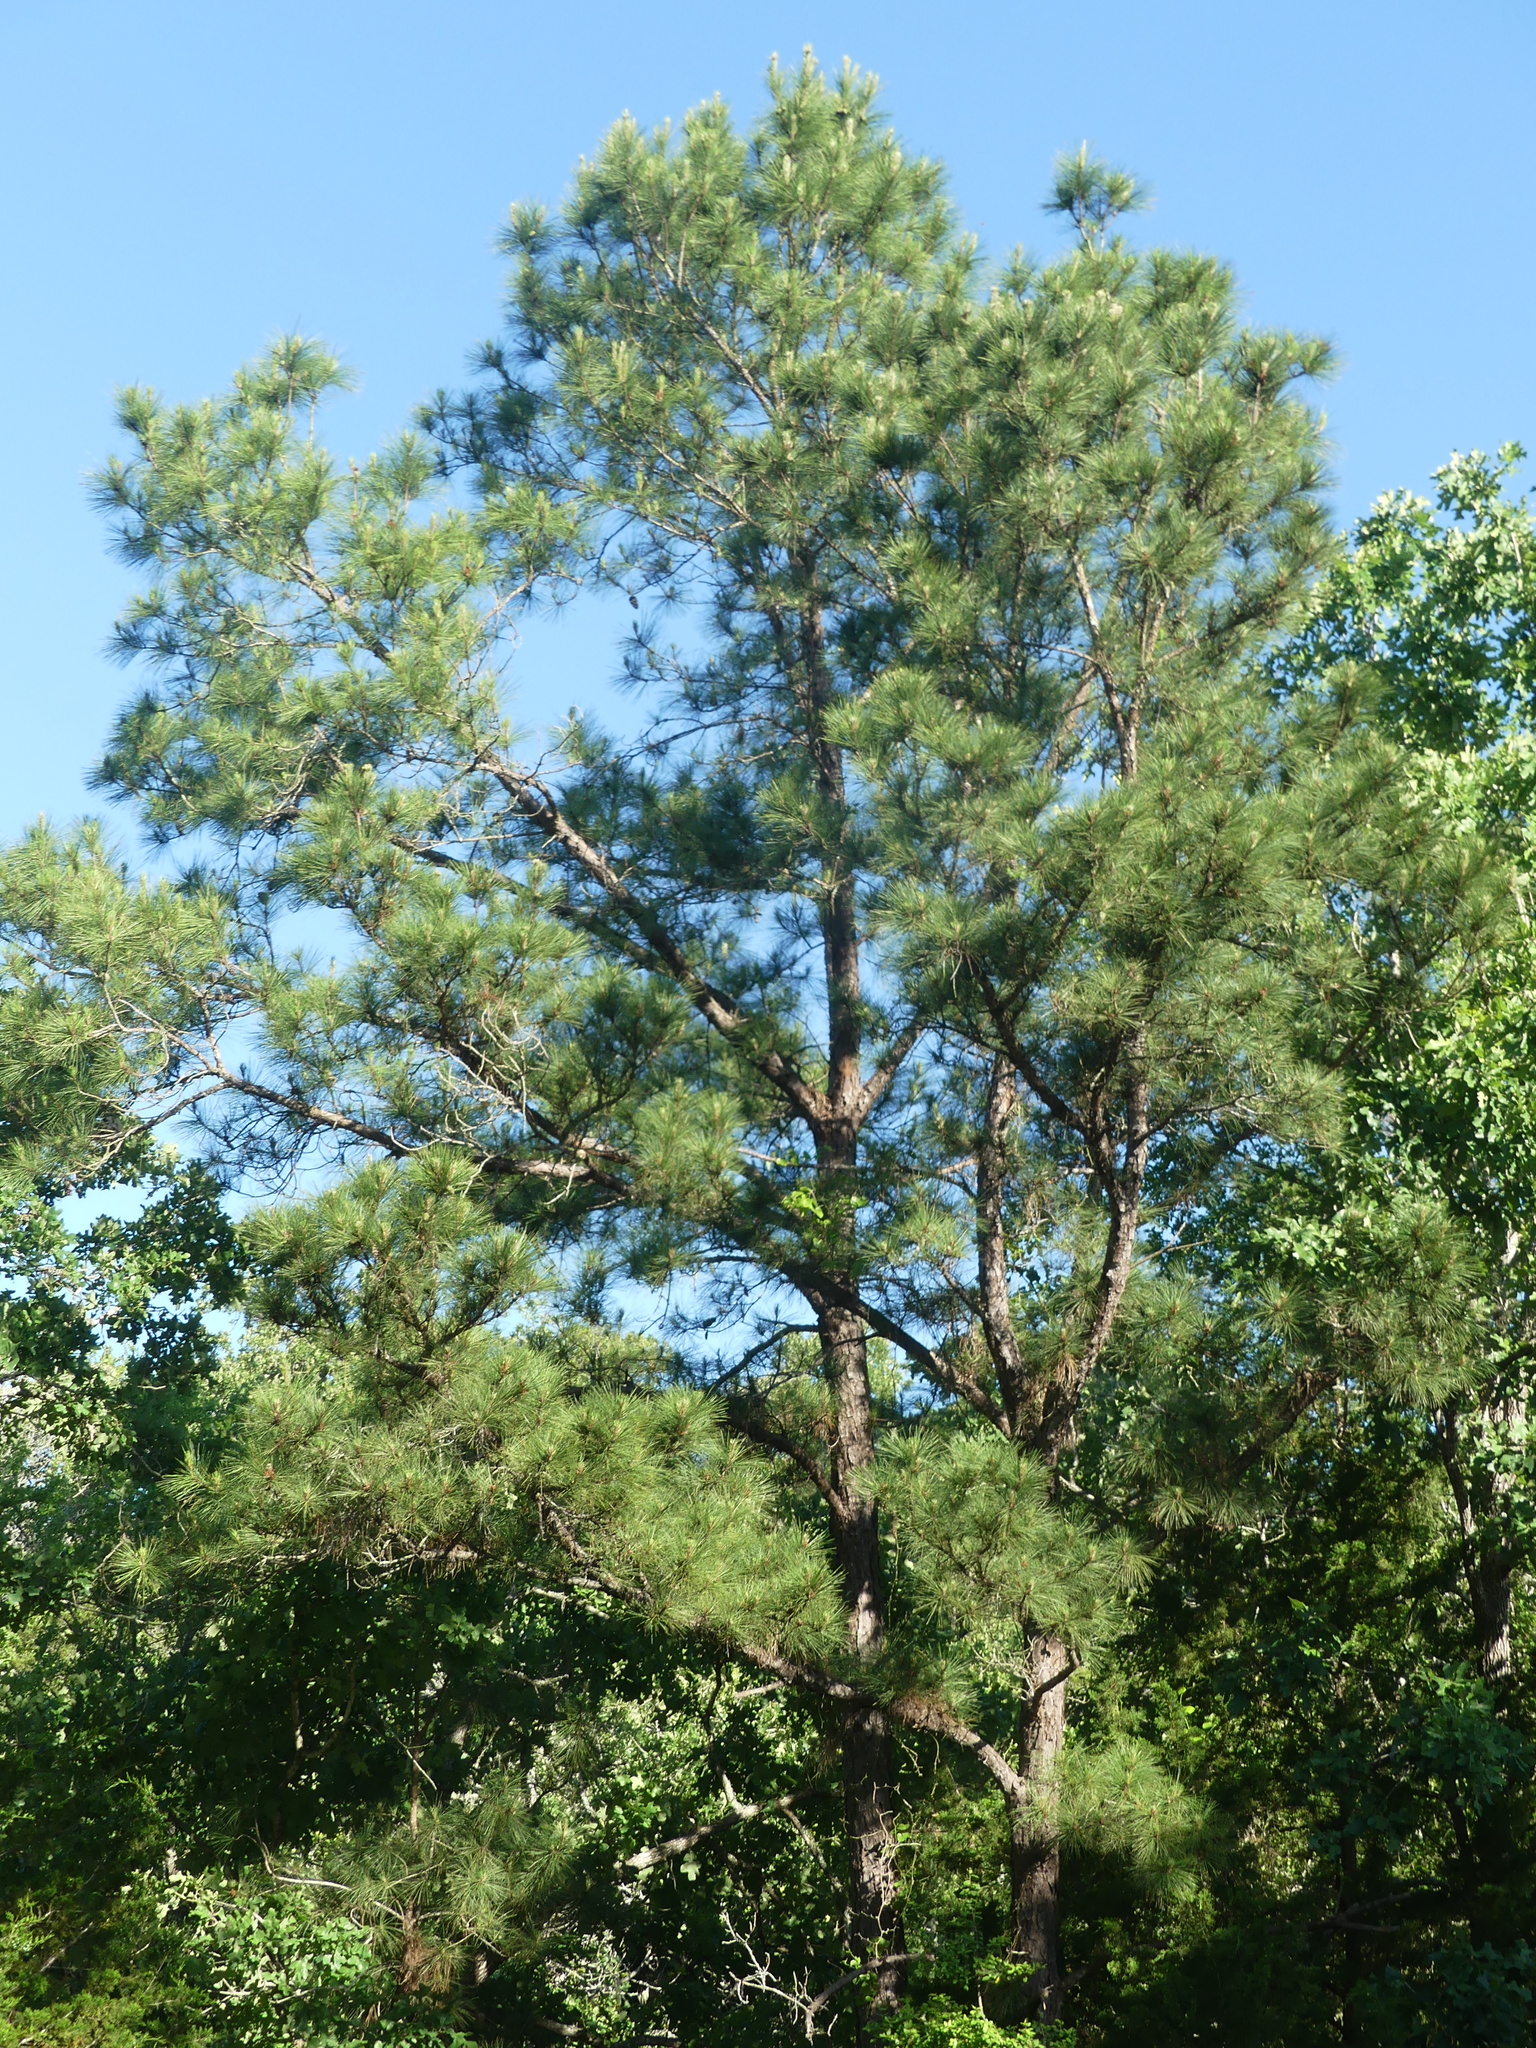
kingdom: Plantae
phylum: Tracheophyta
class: Pinopsida
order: Pinales
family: Pinaceae
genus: Pinus
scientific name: Pinus taeda
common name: Loblolly pine
